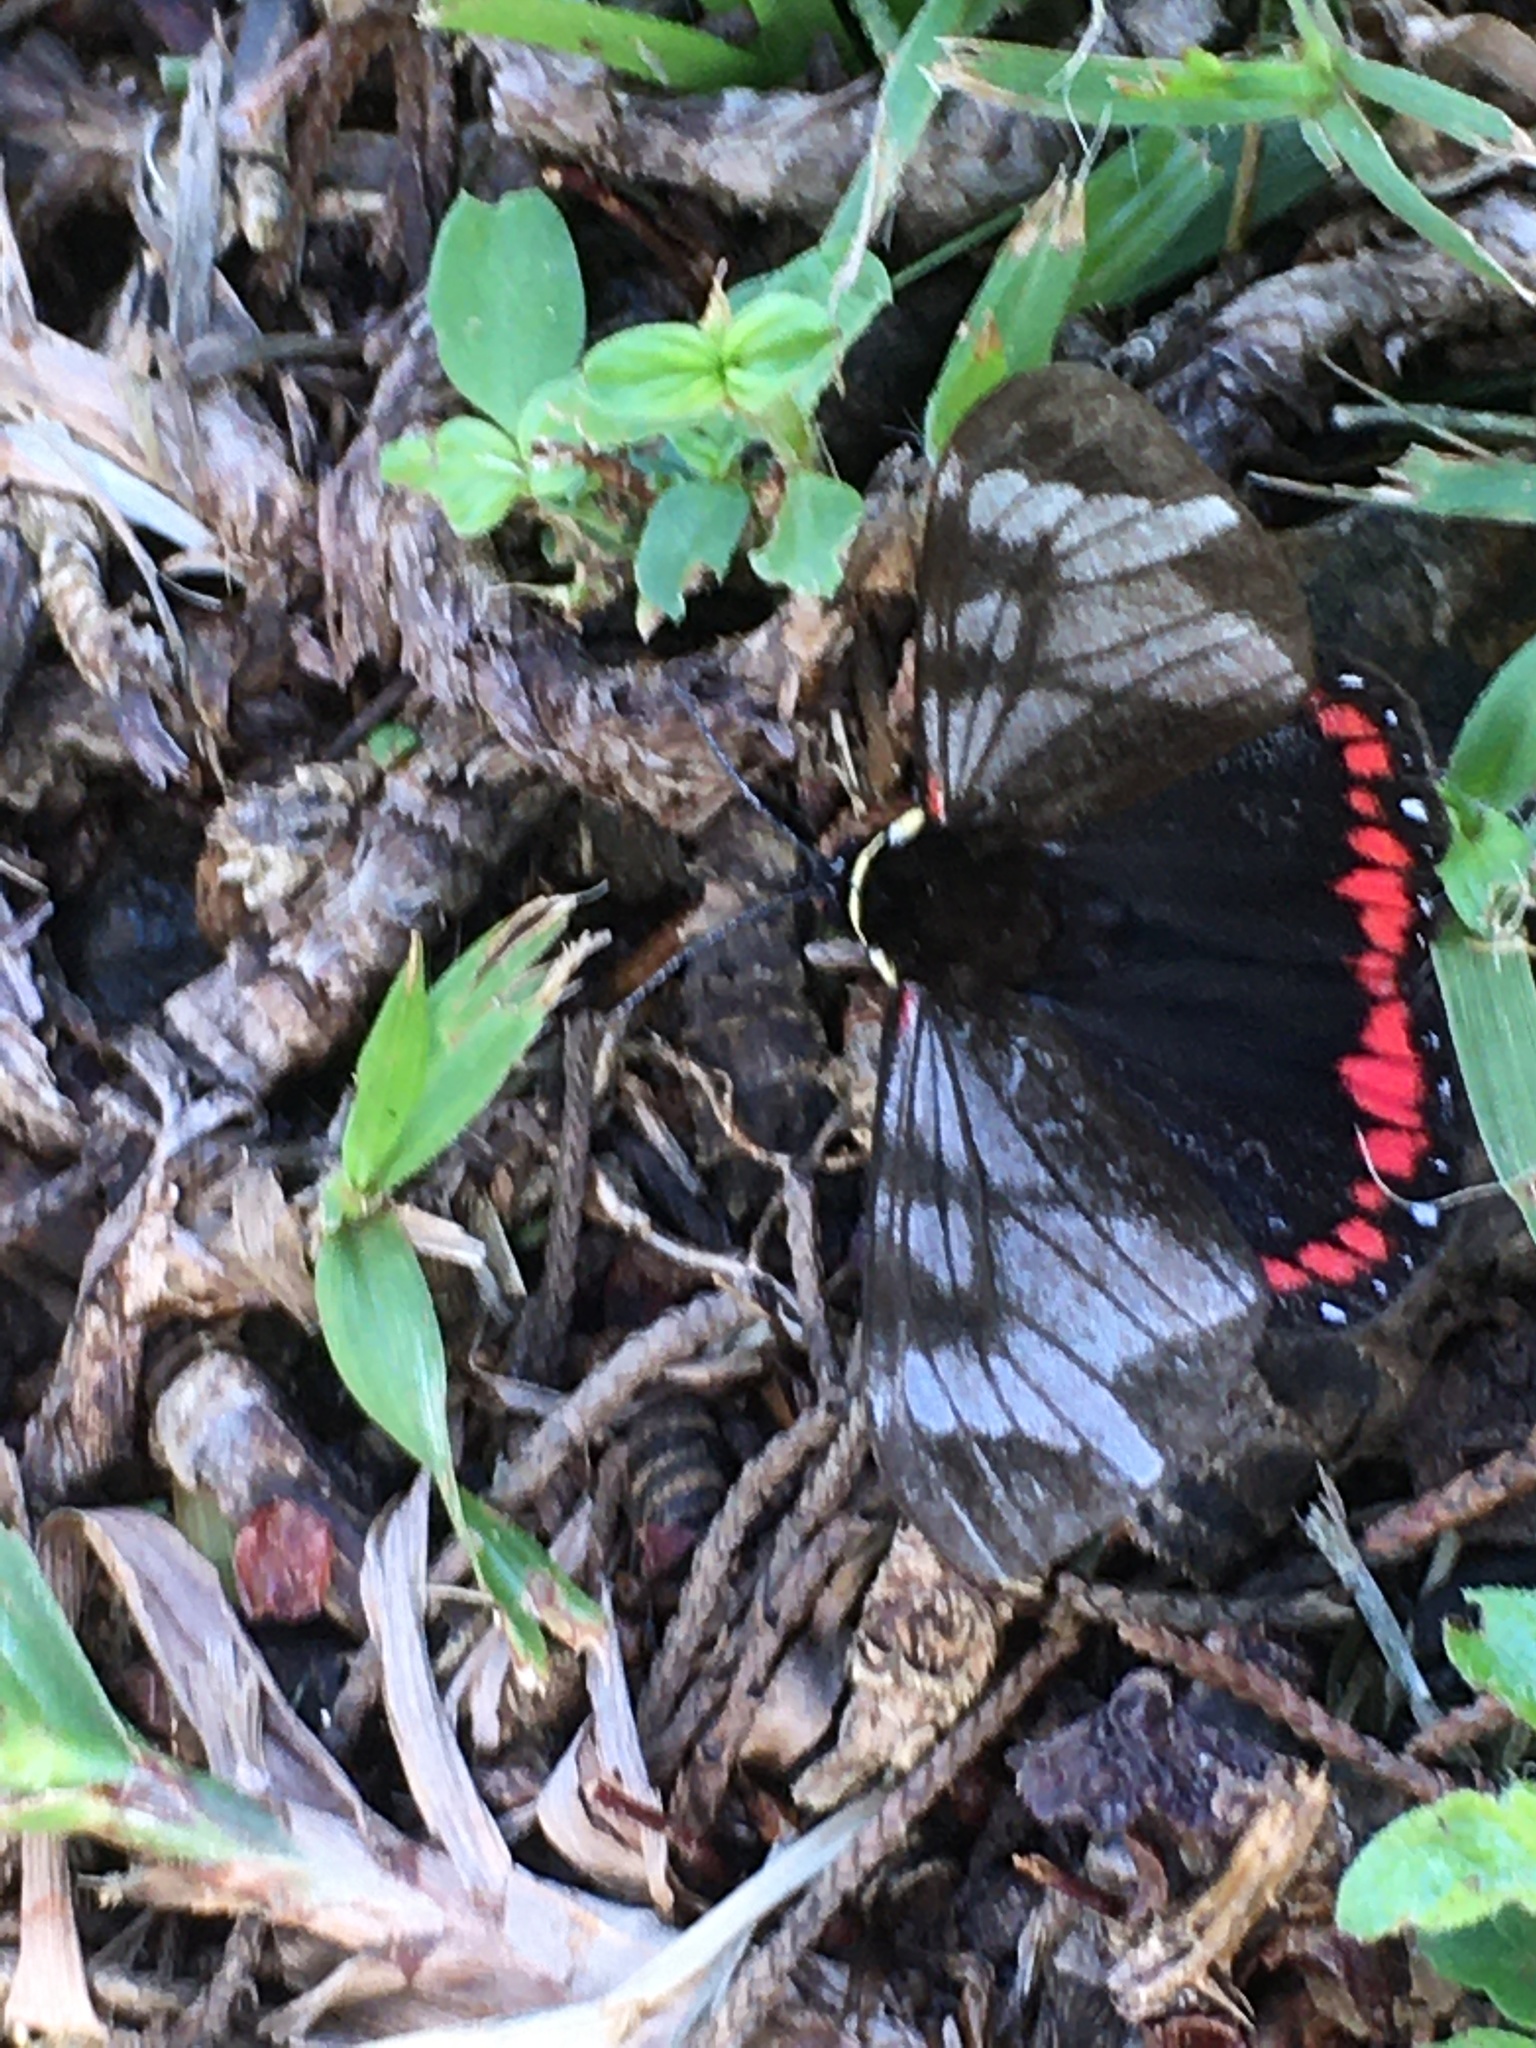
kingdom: Animalia
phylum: Arthropoda
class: Insecta
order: Lepidoptera
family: Erebidae
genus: Dysschema
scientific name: Dysschema cerialis
